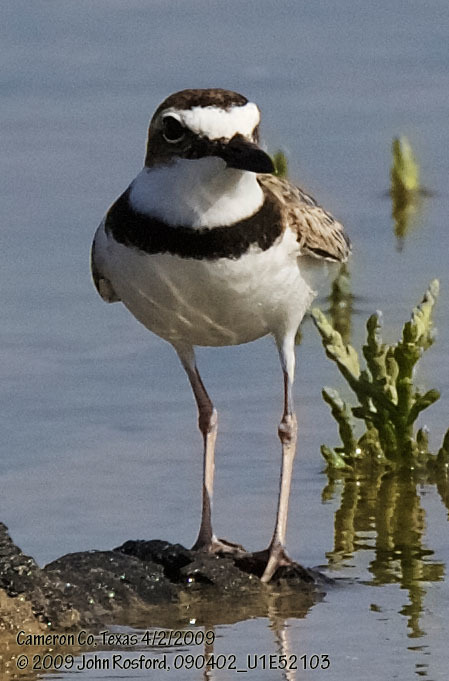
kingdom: Animalia
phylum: Chordata
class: Aves
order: Charadriiformes
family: Charadriidae
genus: Anarhynchus
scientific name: Anarhynchus
